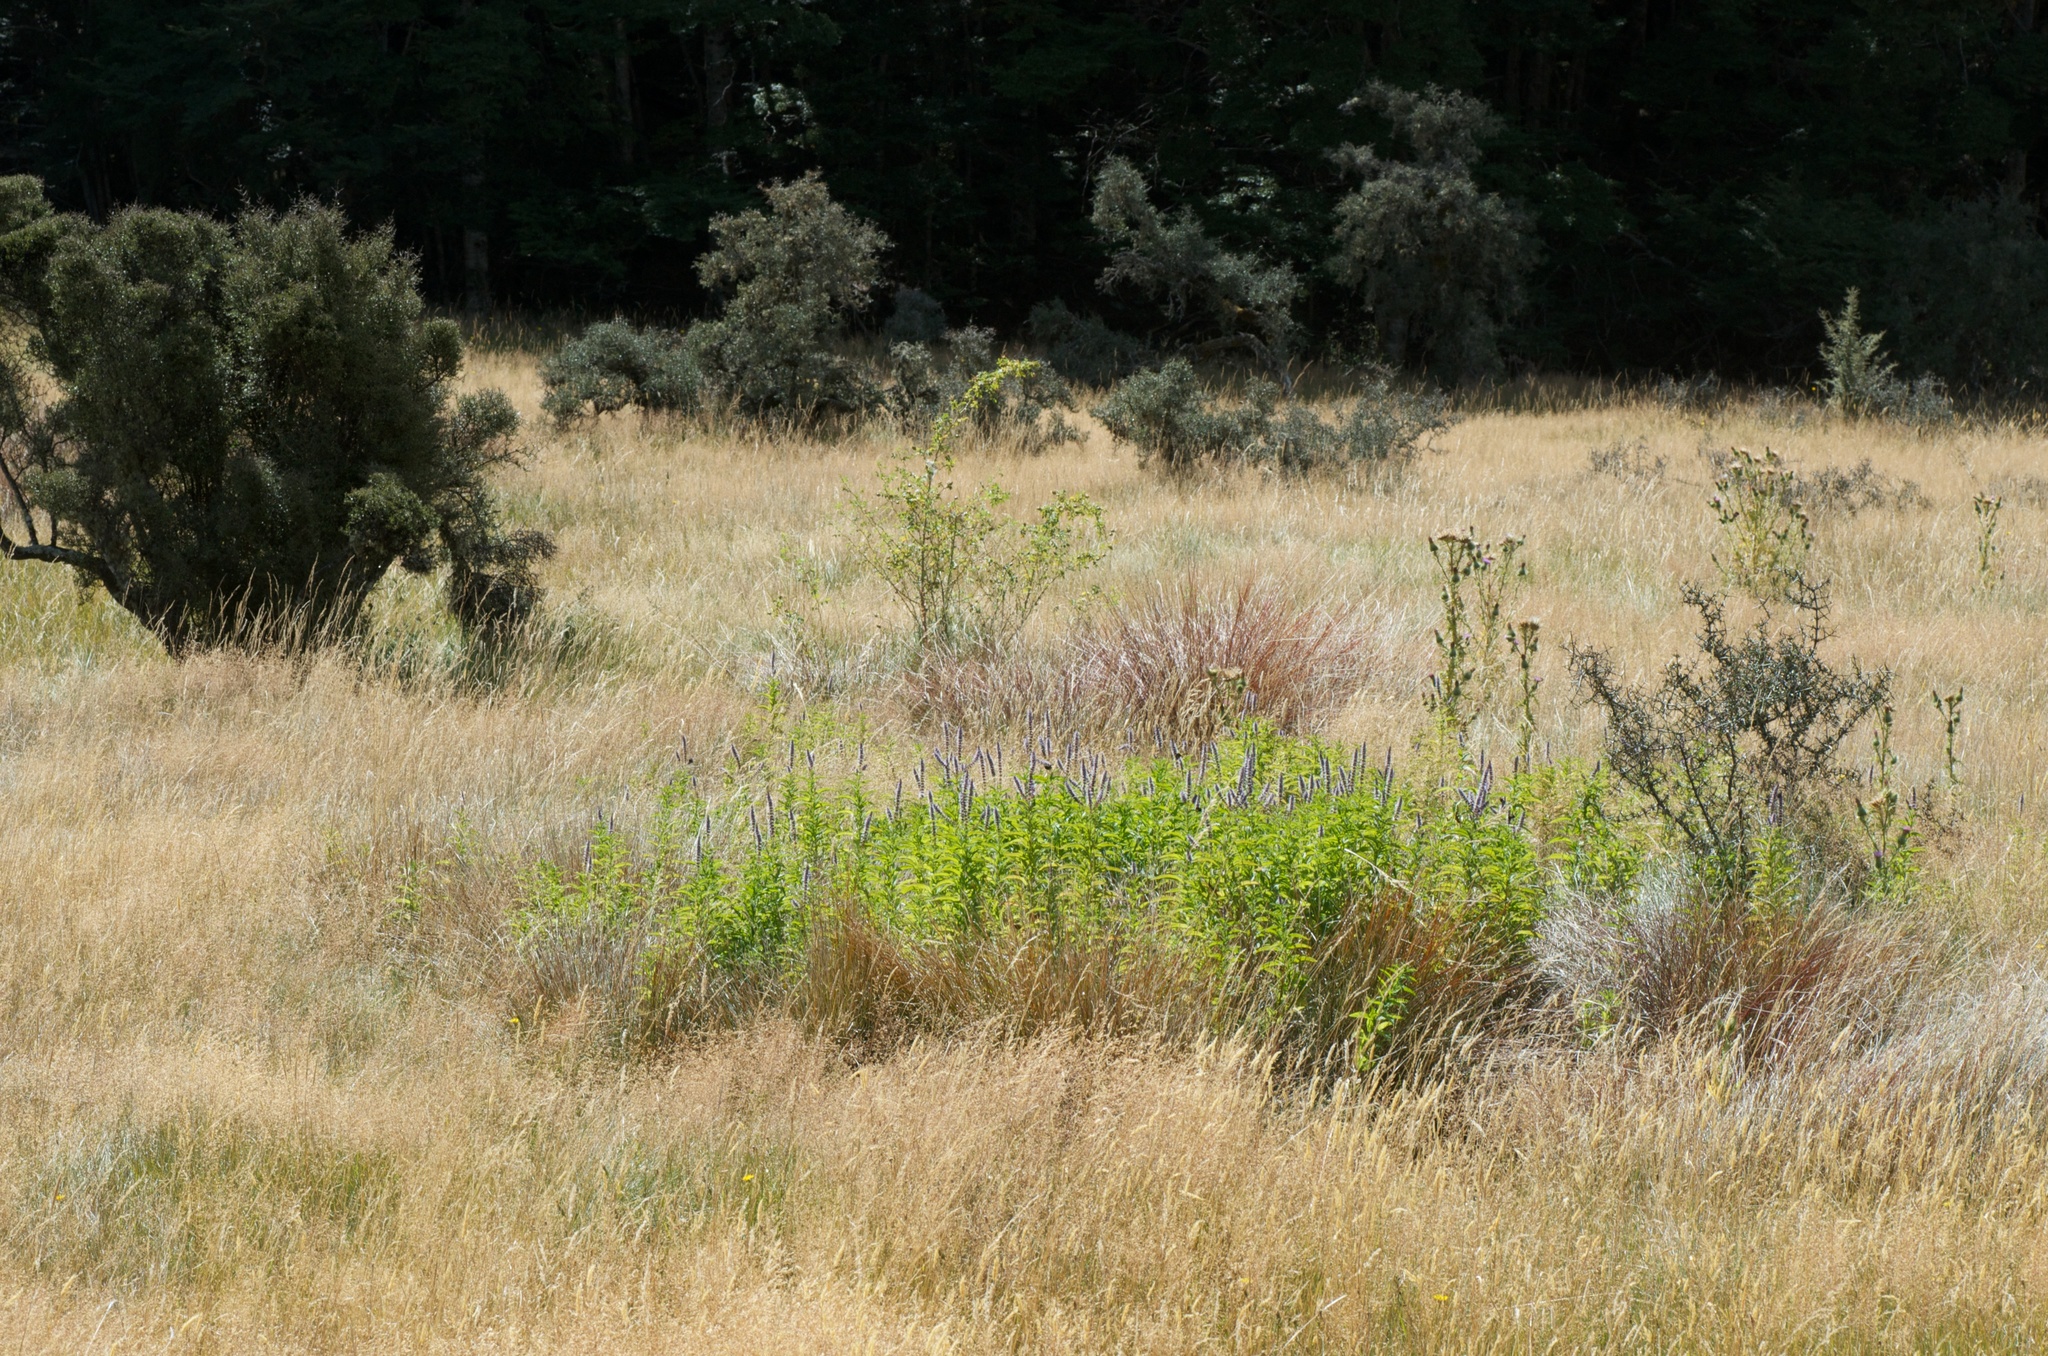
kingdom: Plantae
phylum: Tracheophyta
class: Magnoliopsida
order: Lamiales
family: Lamiaceae
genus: Mentha
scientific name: Mentha spicata
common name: Spearmint
